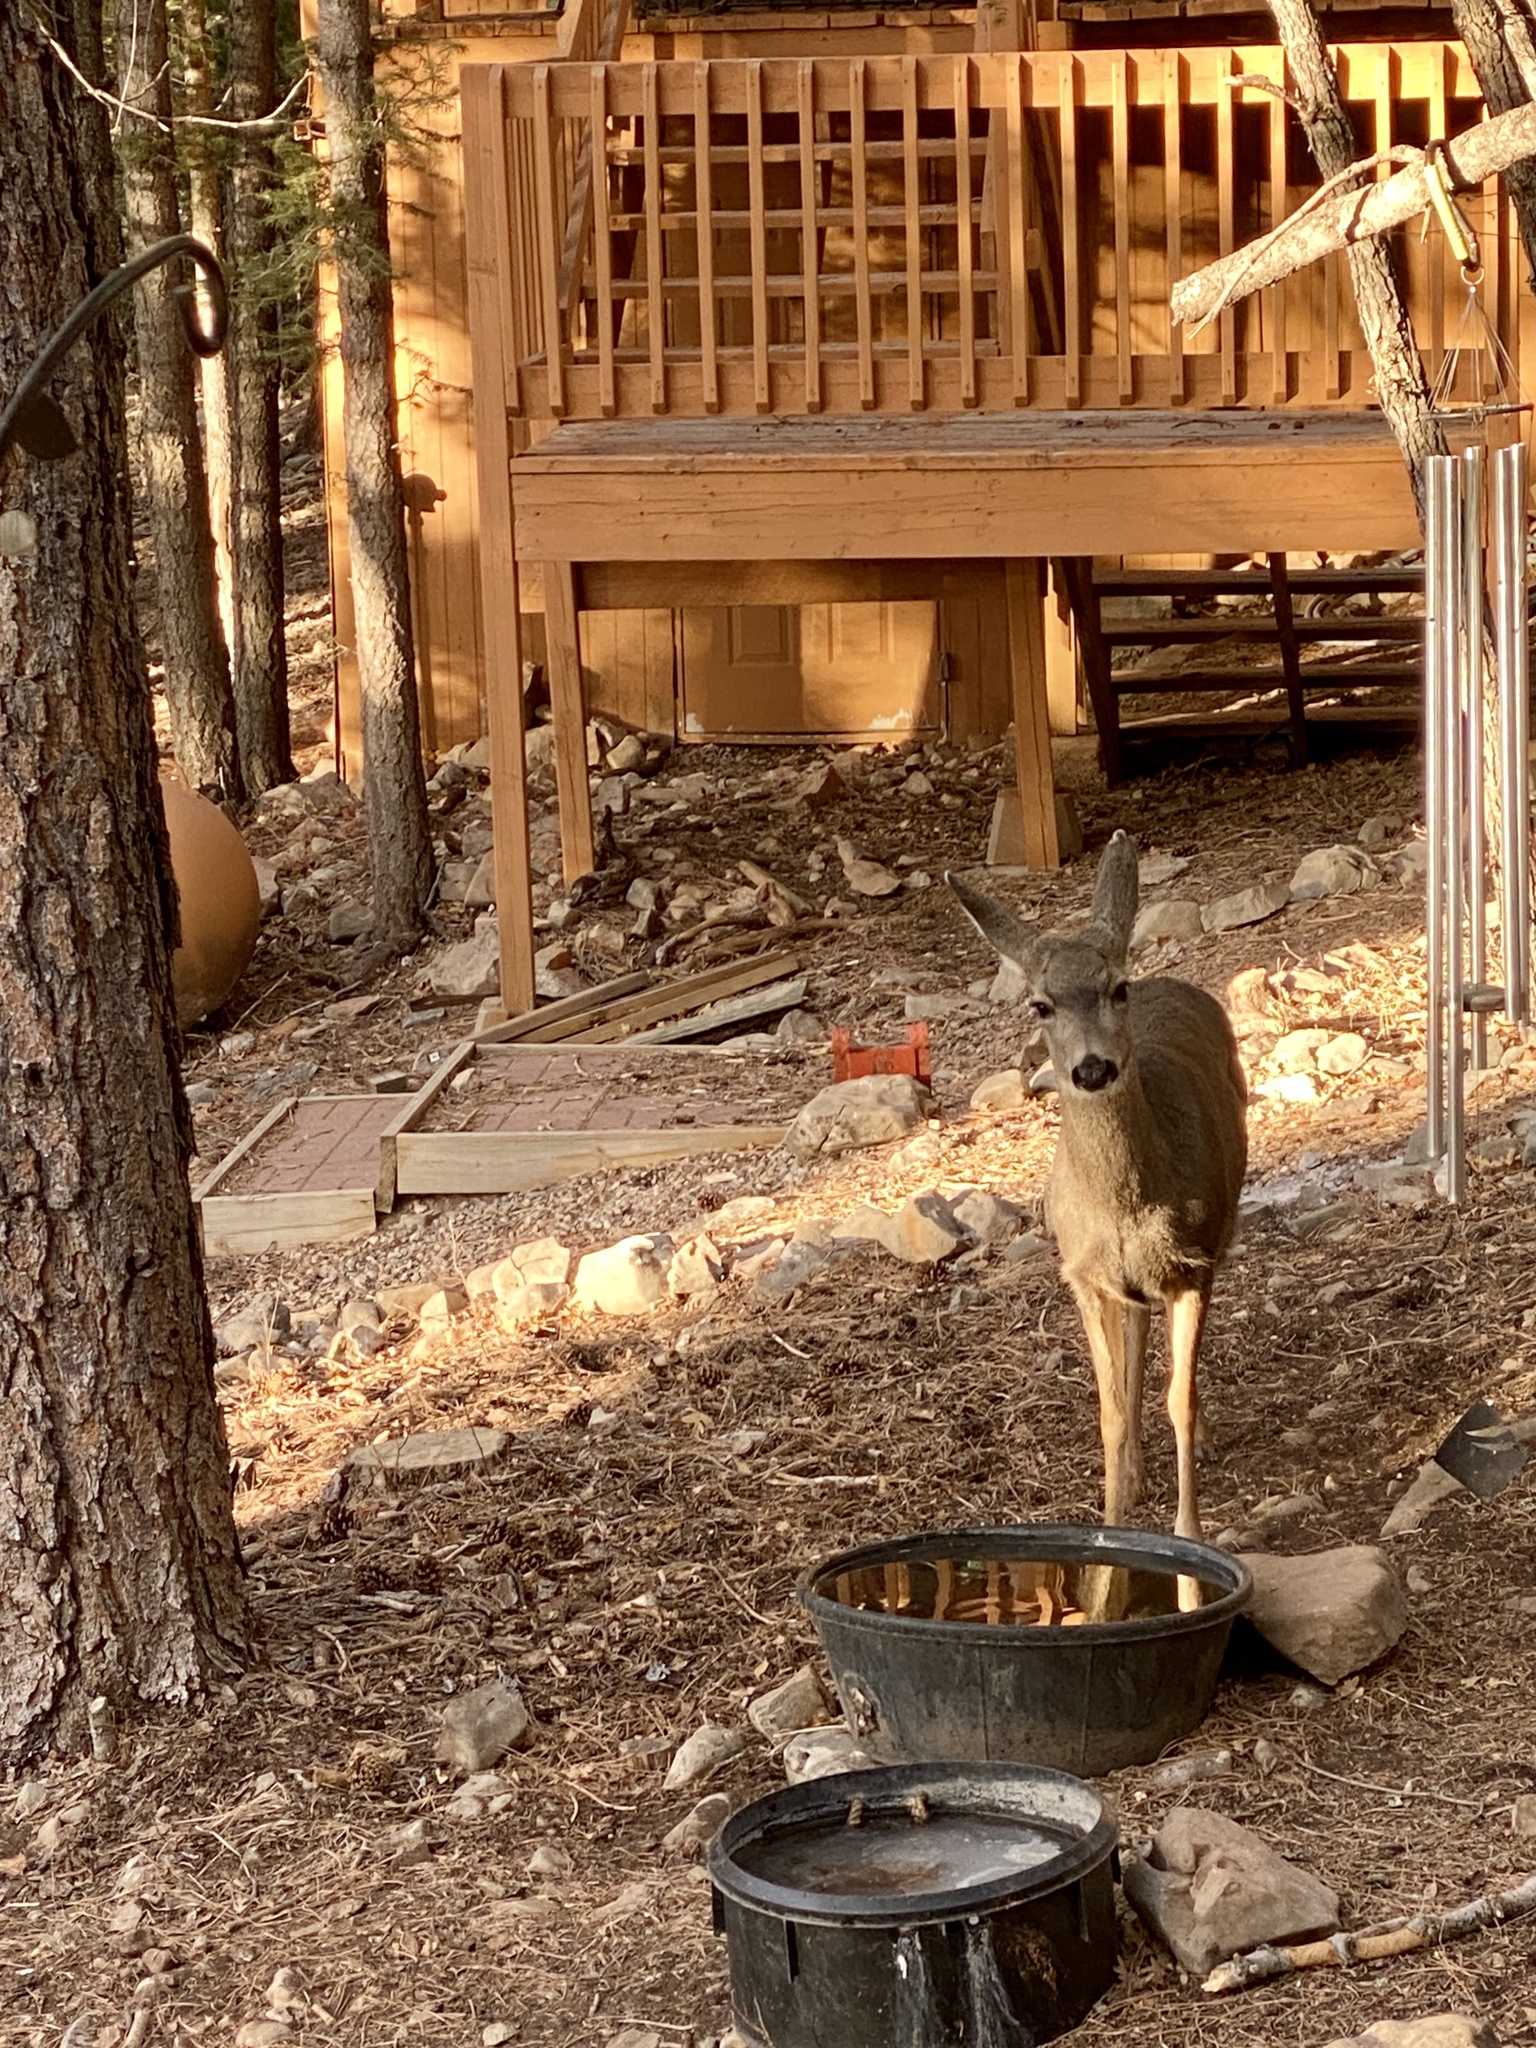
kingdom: Animalia
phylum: Chordata
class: Mammalia
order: Artiodactyla
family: Cervidae
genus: Odocoileus
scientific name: Odocoileus hemionus
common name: Mule deer
